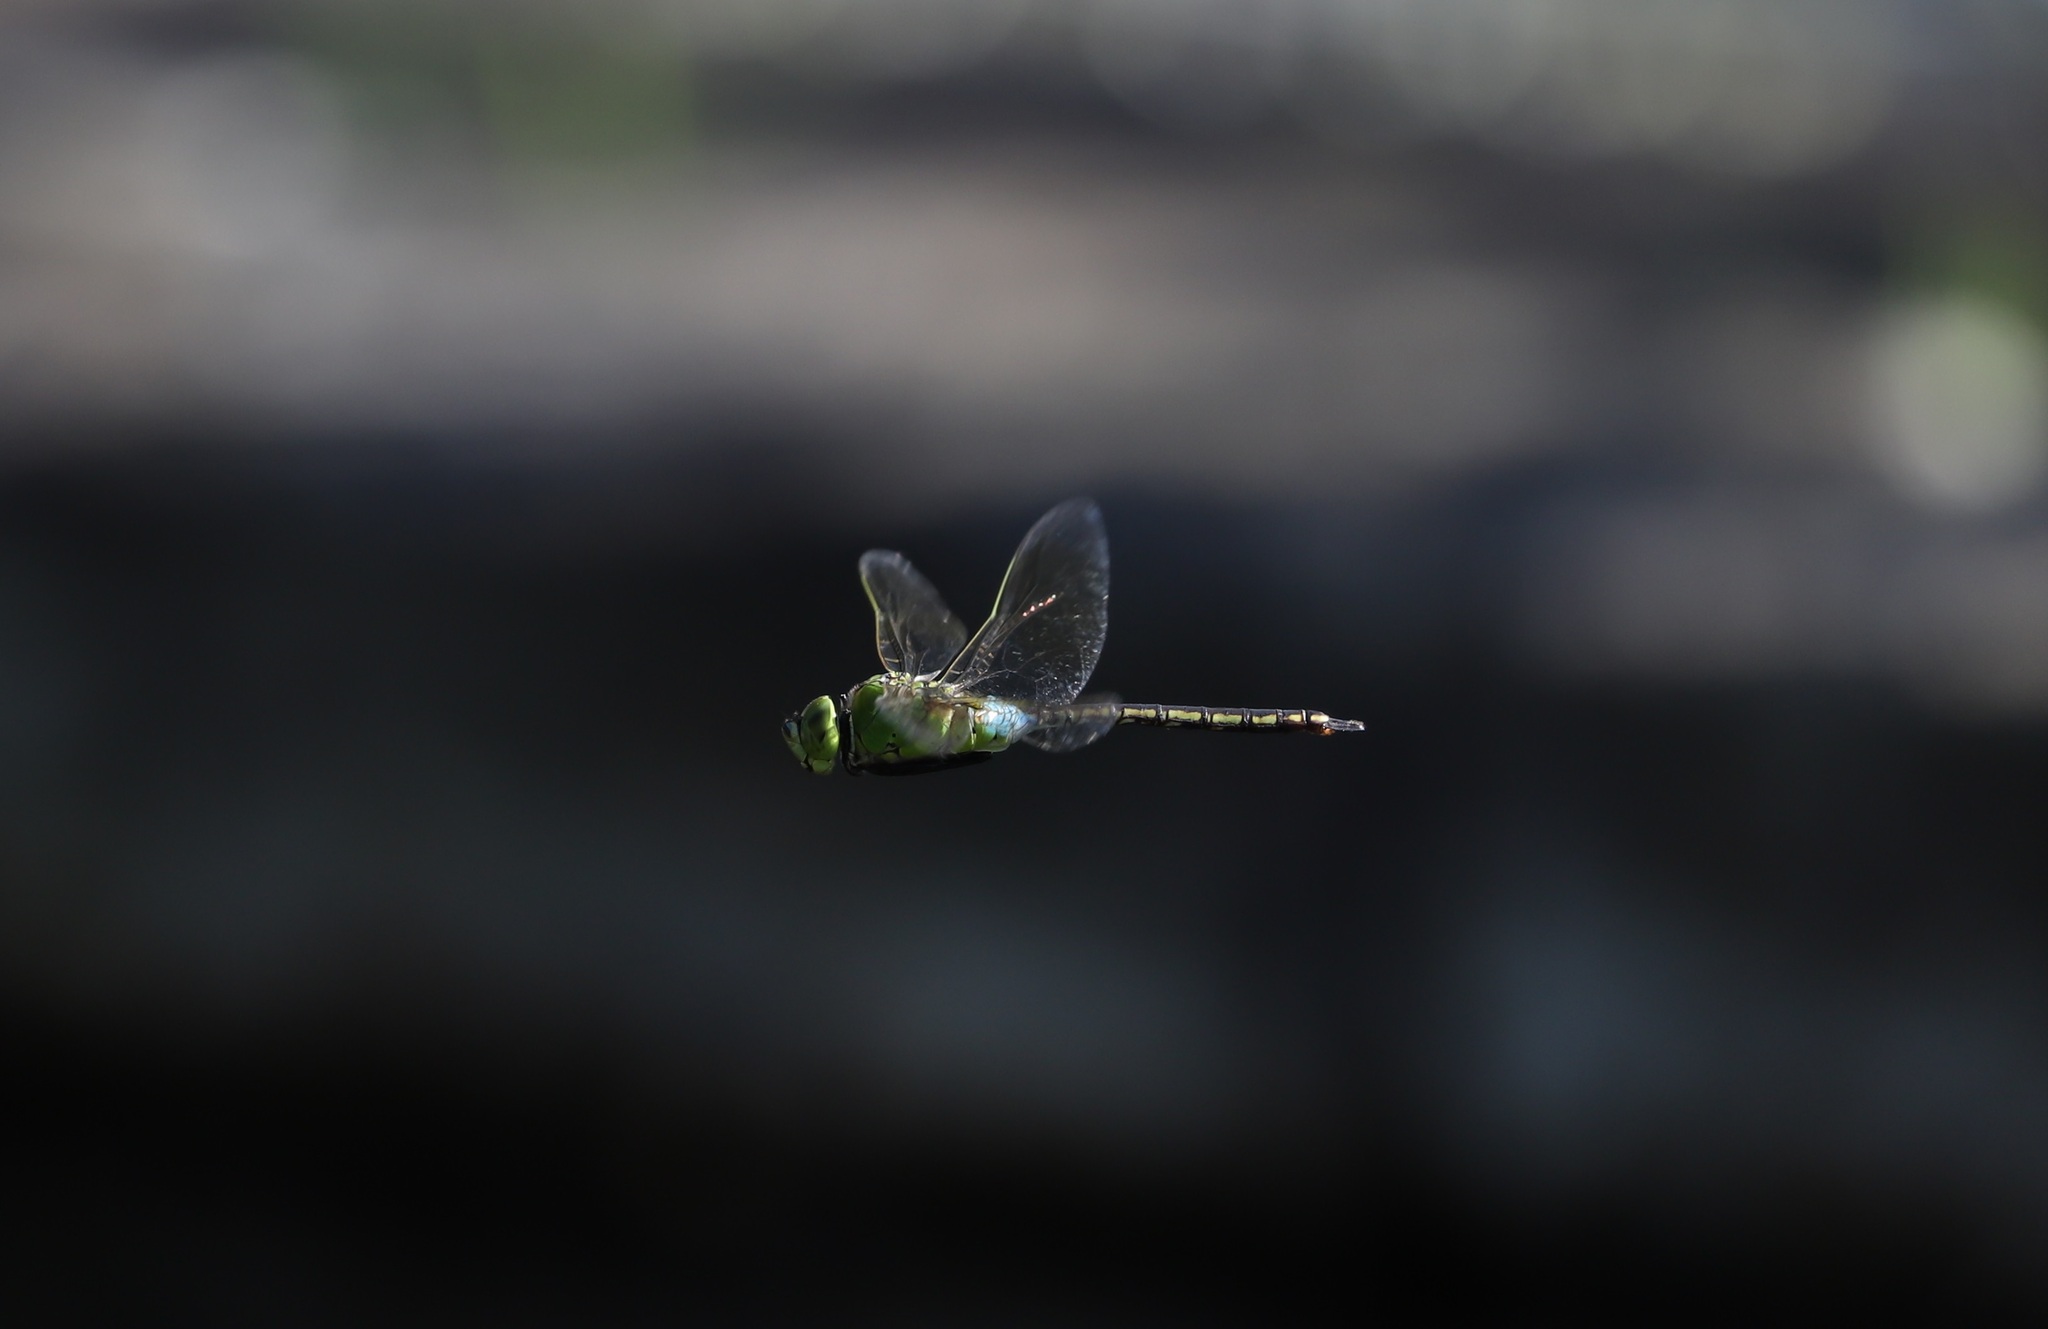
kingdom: Animalia
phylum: Arthropoda
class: Insecta
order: Odonata
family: Aeshnidae
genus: Anax
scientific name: Anax julius
